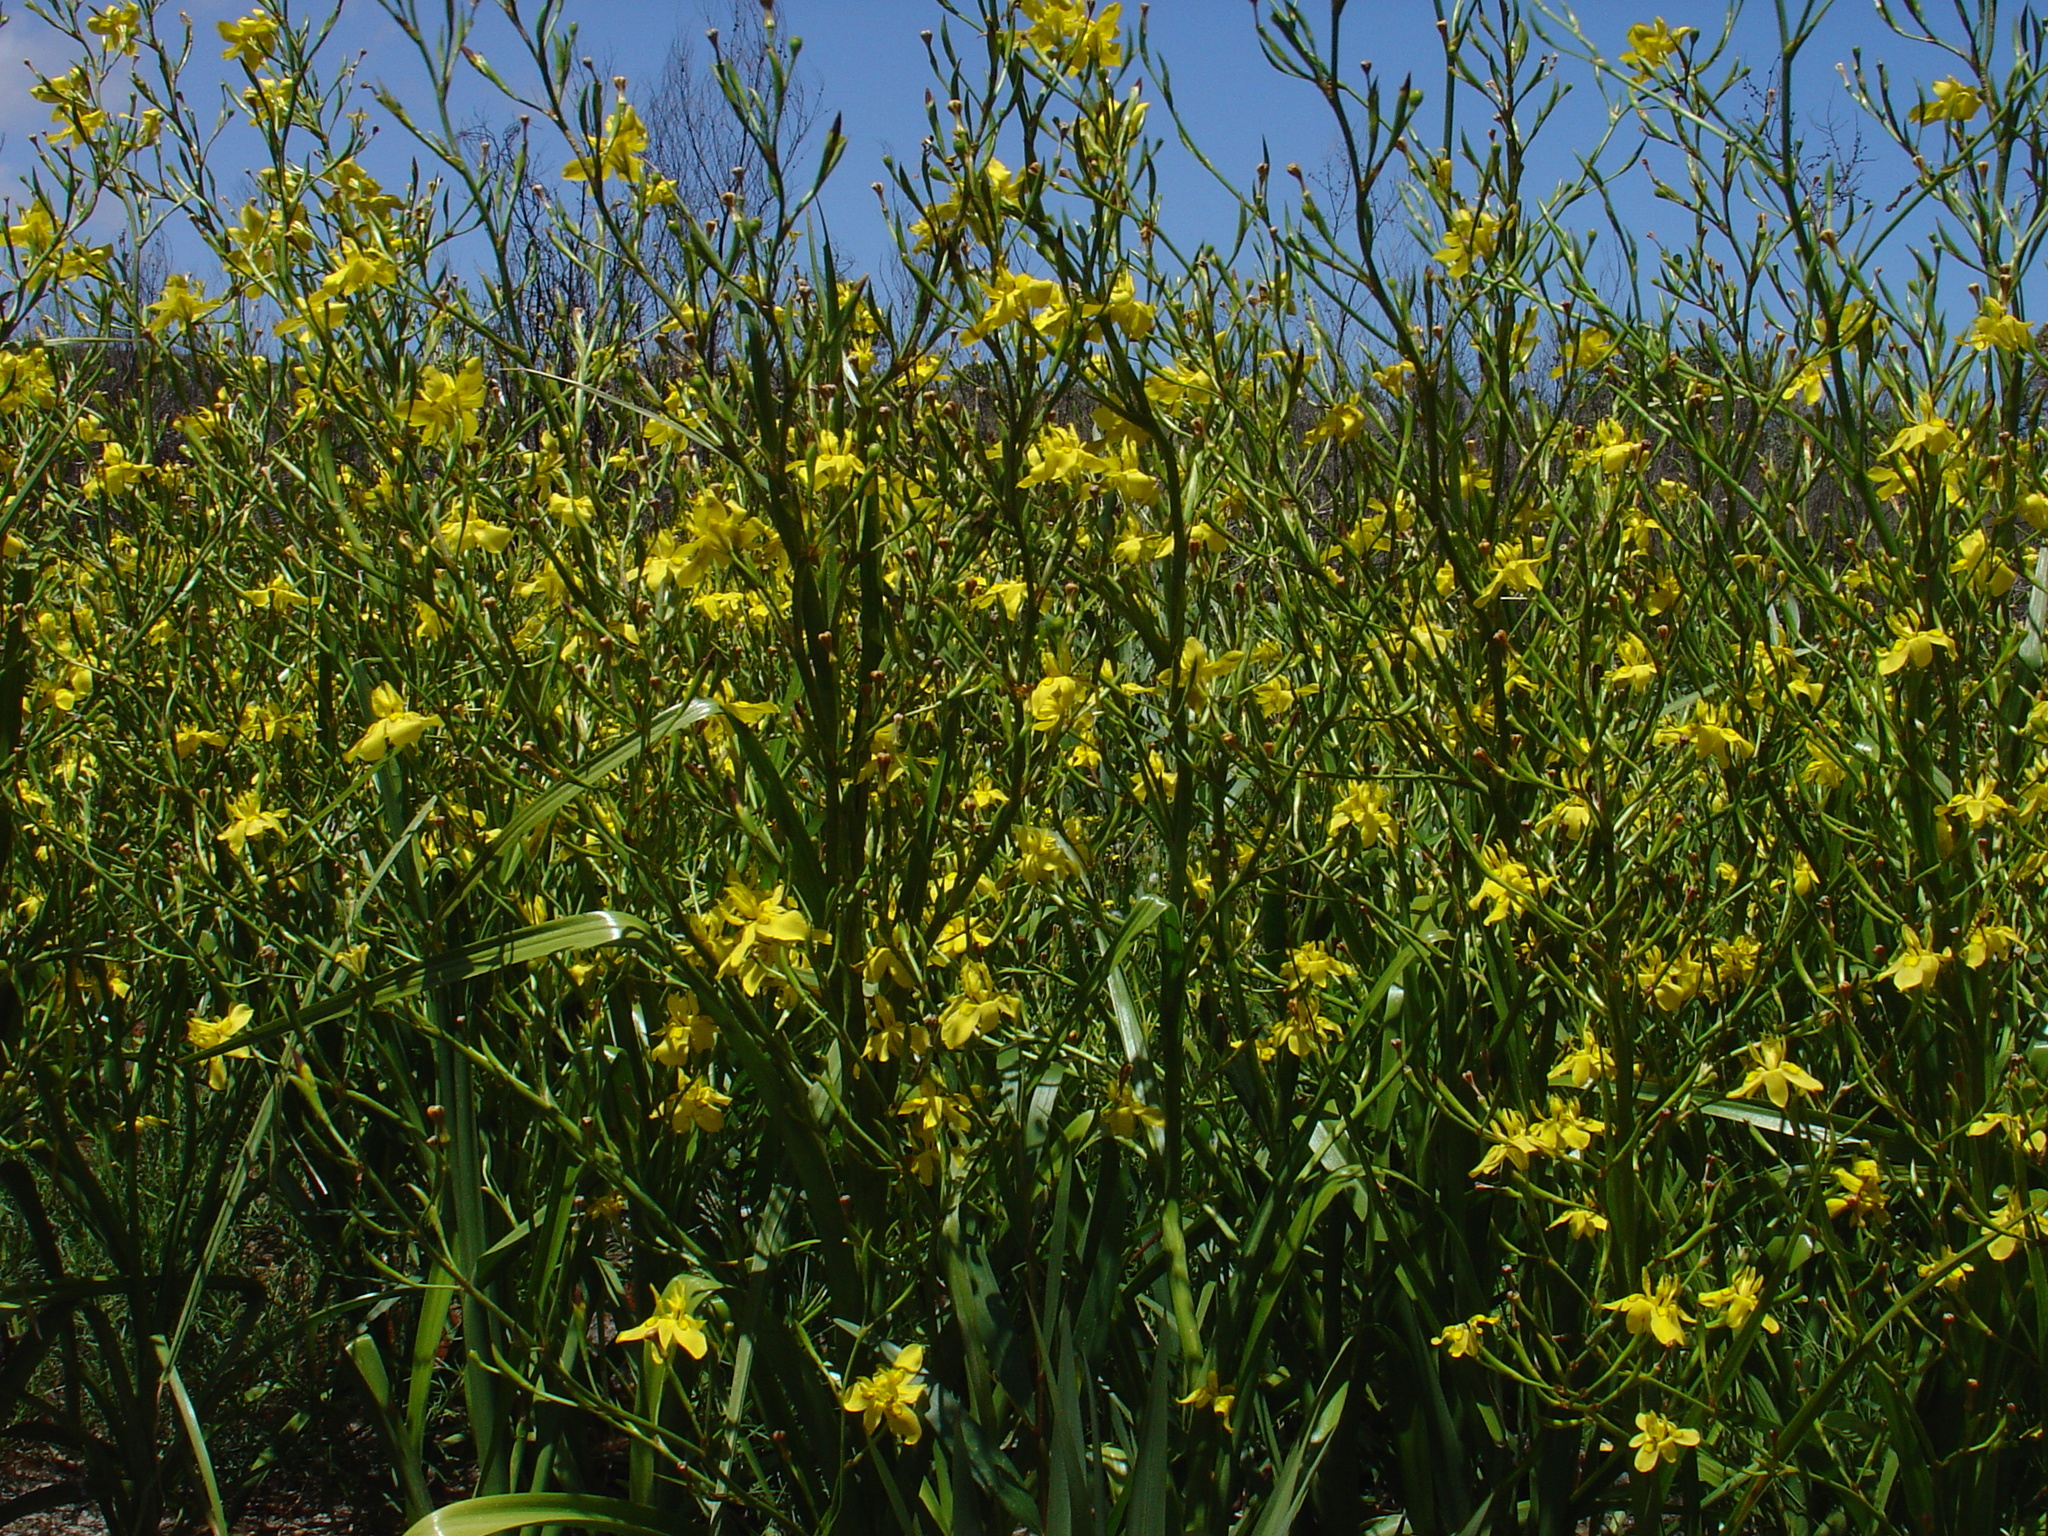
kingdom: Plantae
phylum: Tracheophyta
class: Liliopsida
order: Asparagales
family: Iridaceae
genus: Moraea
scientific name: Moraea ramosissima
